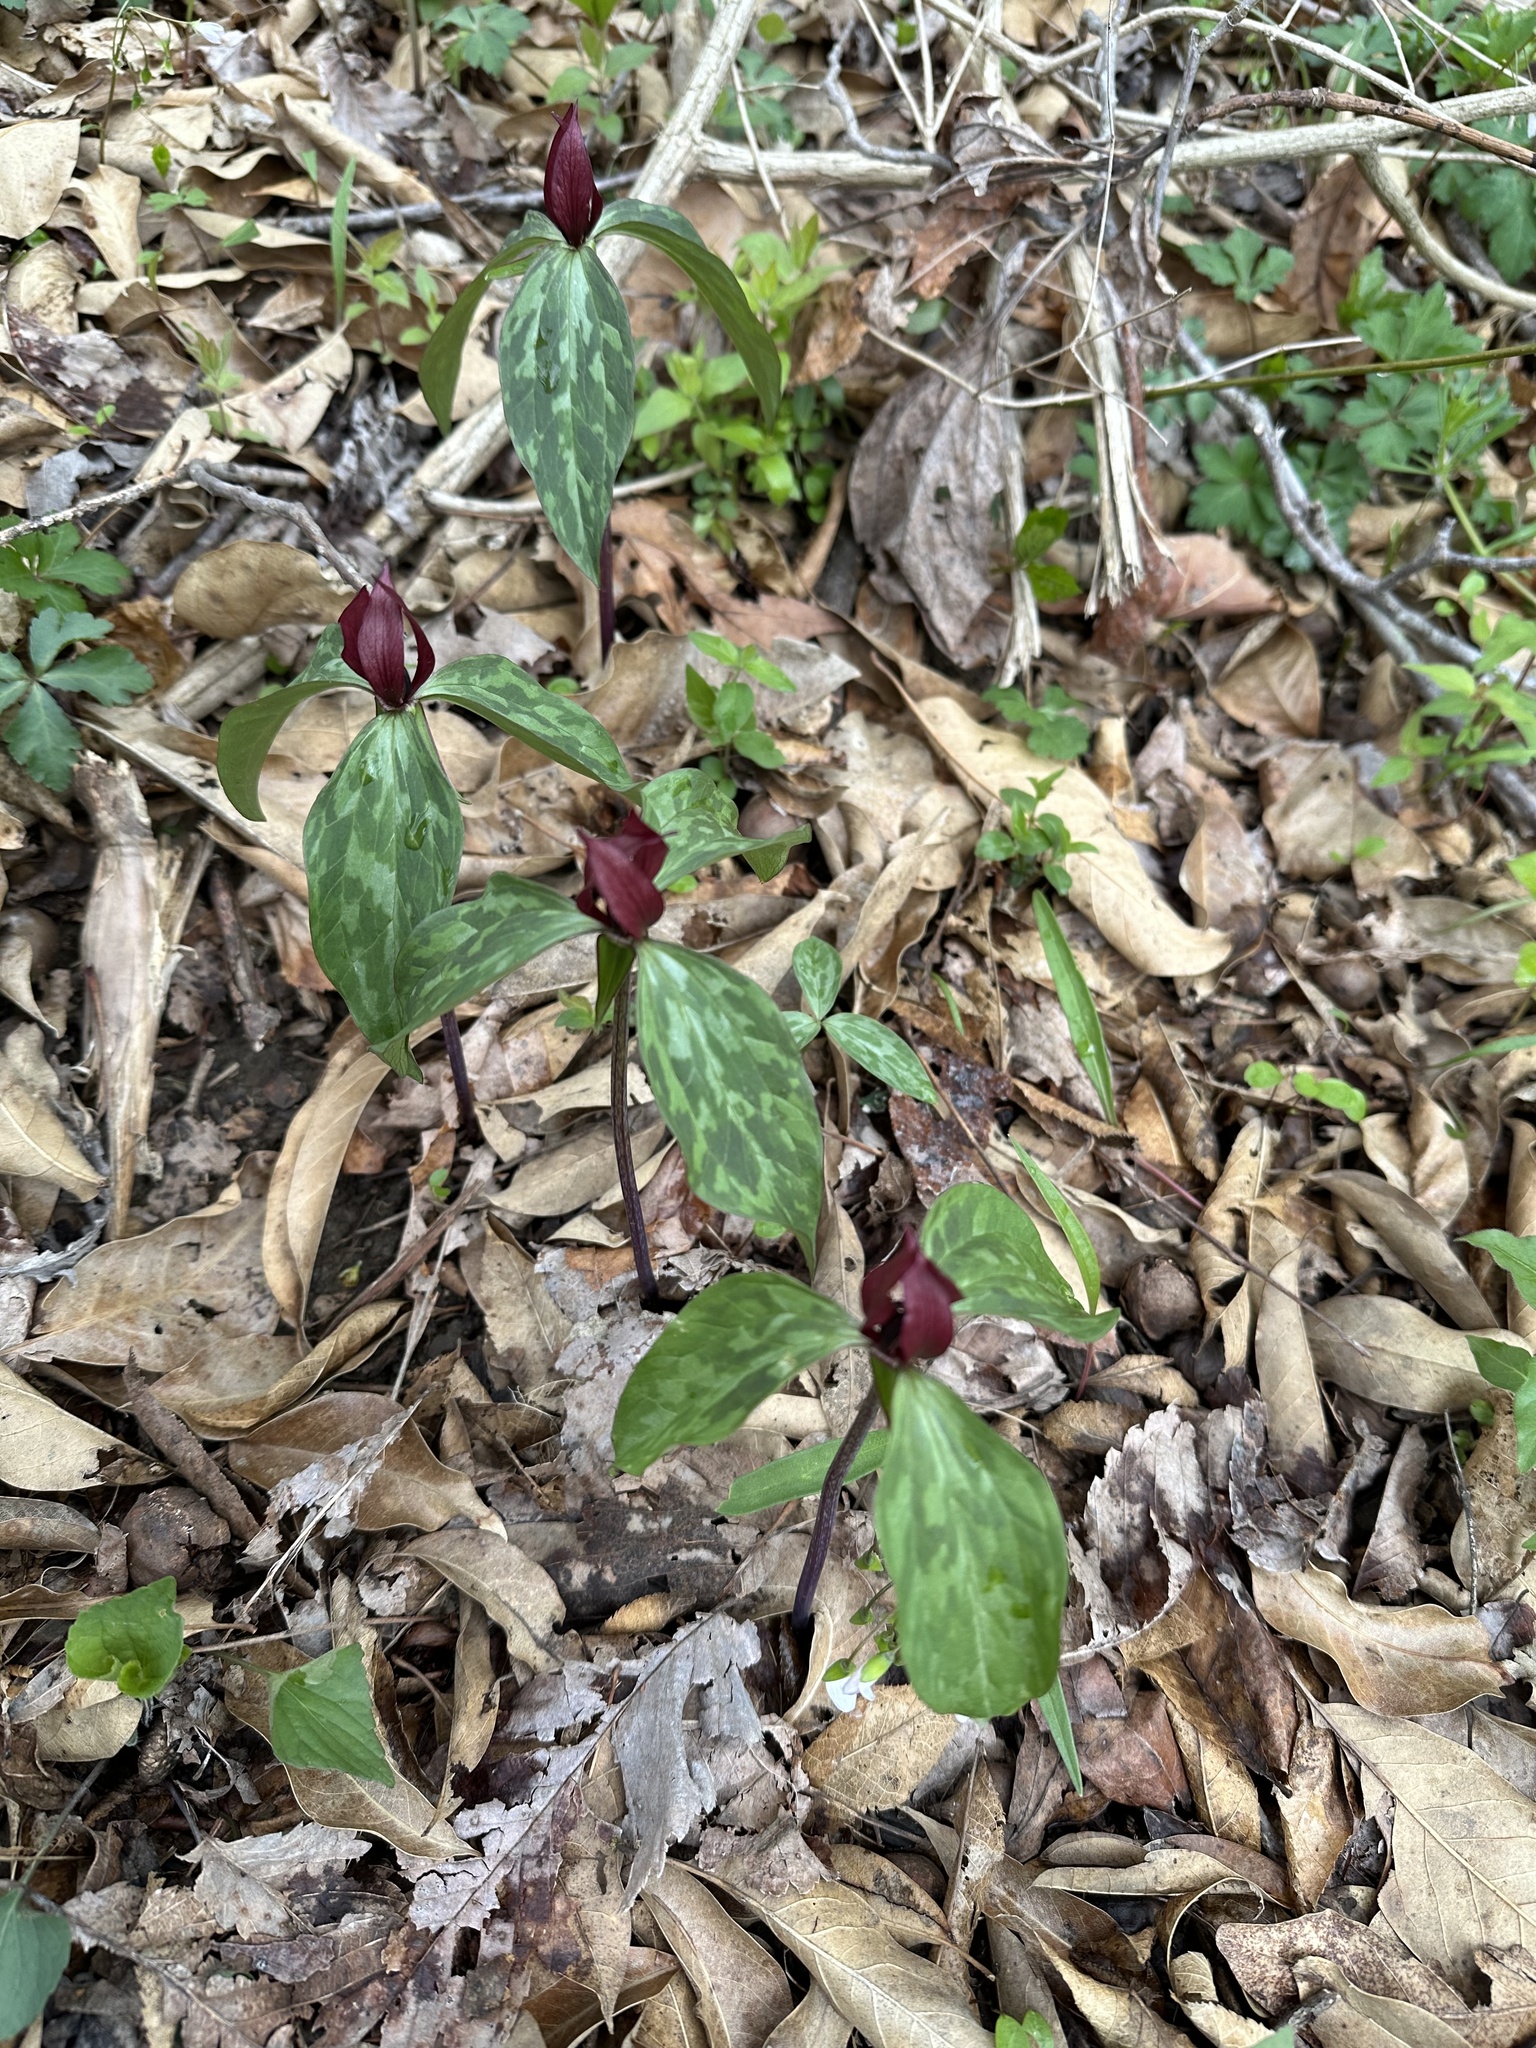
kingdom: Plantae
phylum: Tracheophyta
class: Liliopsida
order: Liliales
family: Melanthiaceae
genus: Trillium
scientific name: Trillium recurvatum
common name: Bloody butcher
